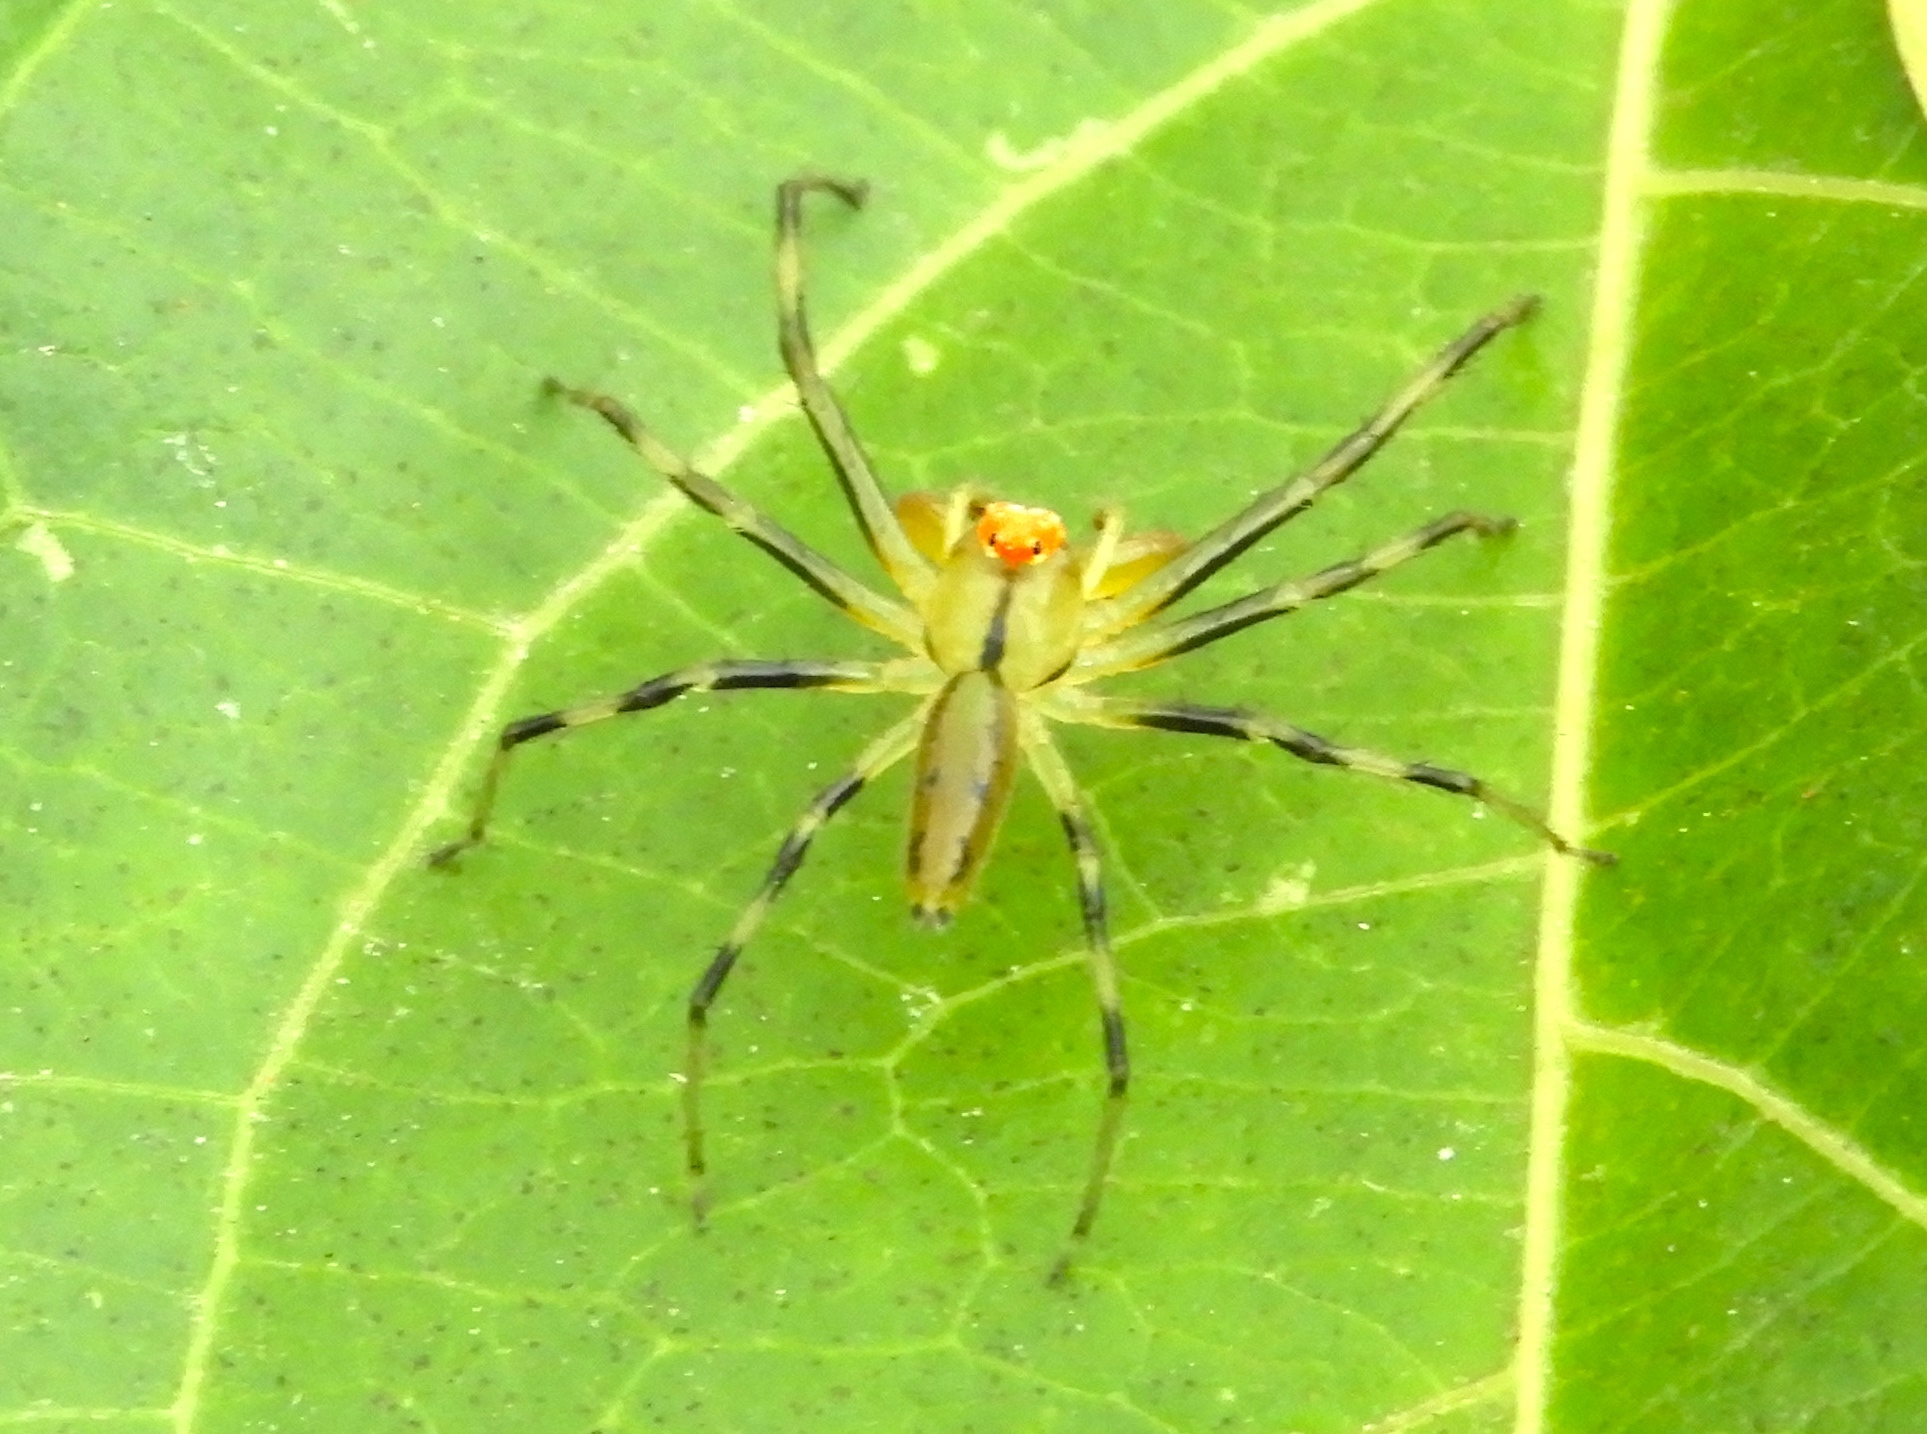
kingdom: Animalia
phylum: Arthropoda
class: Arachnida
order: Araneae
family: Salticidae
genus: Lyssomanes
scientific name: Lyssomanes
